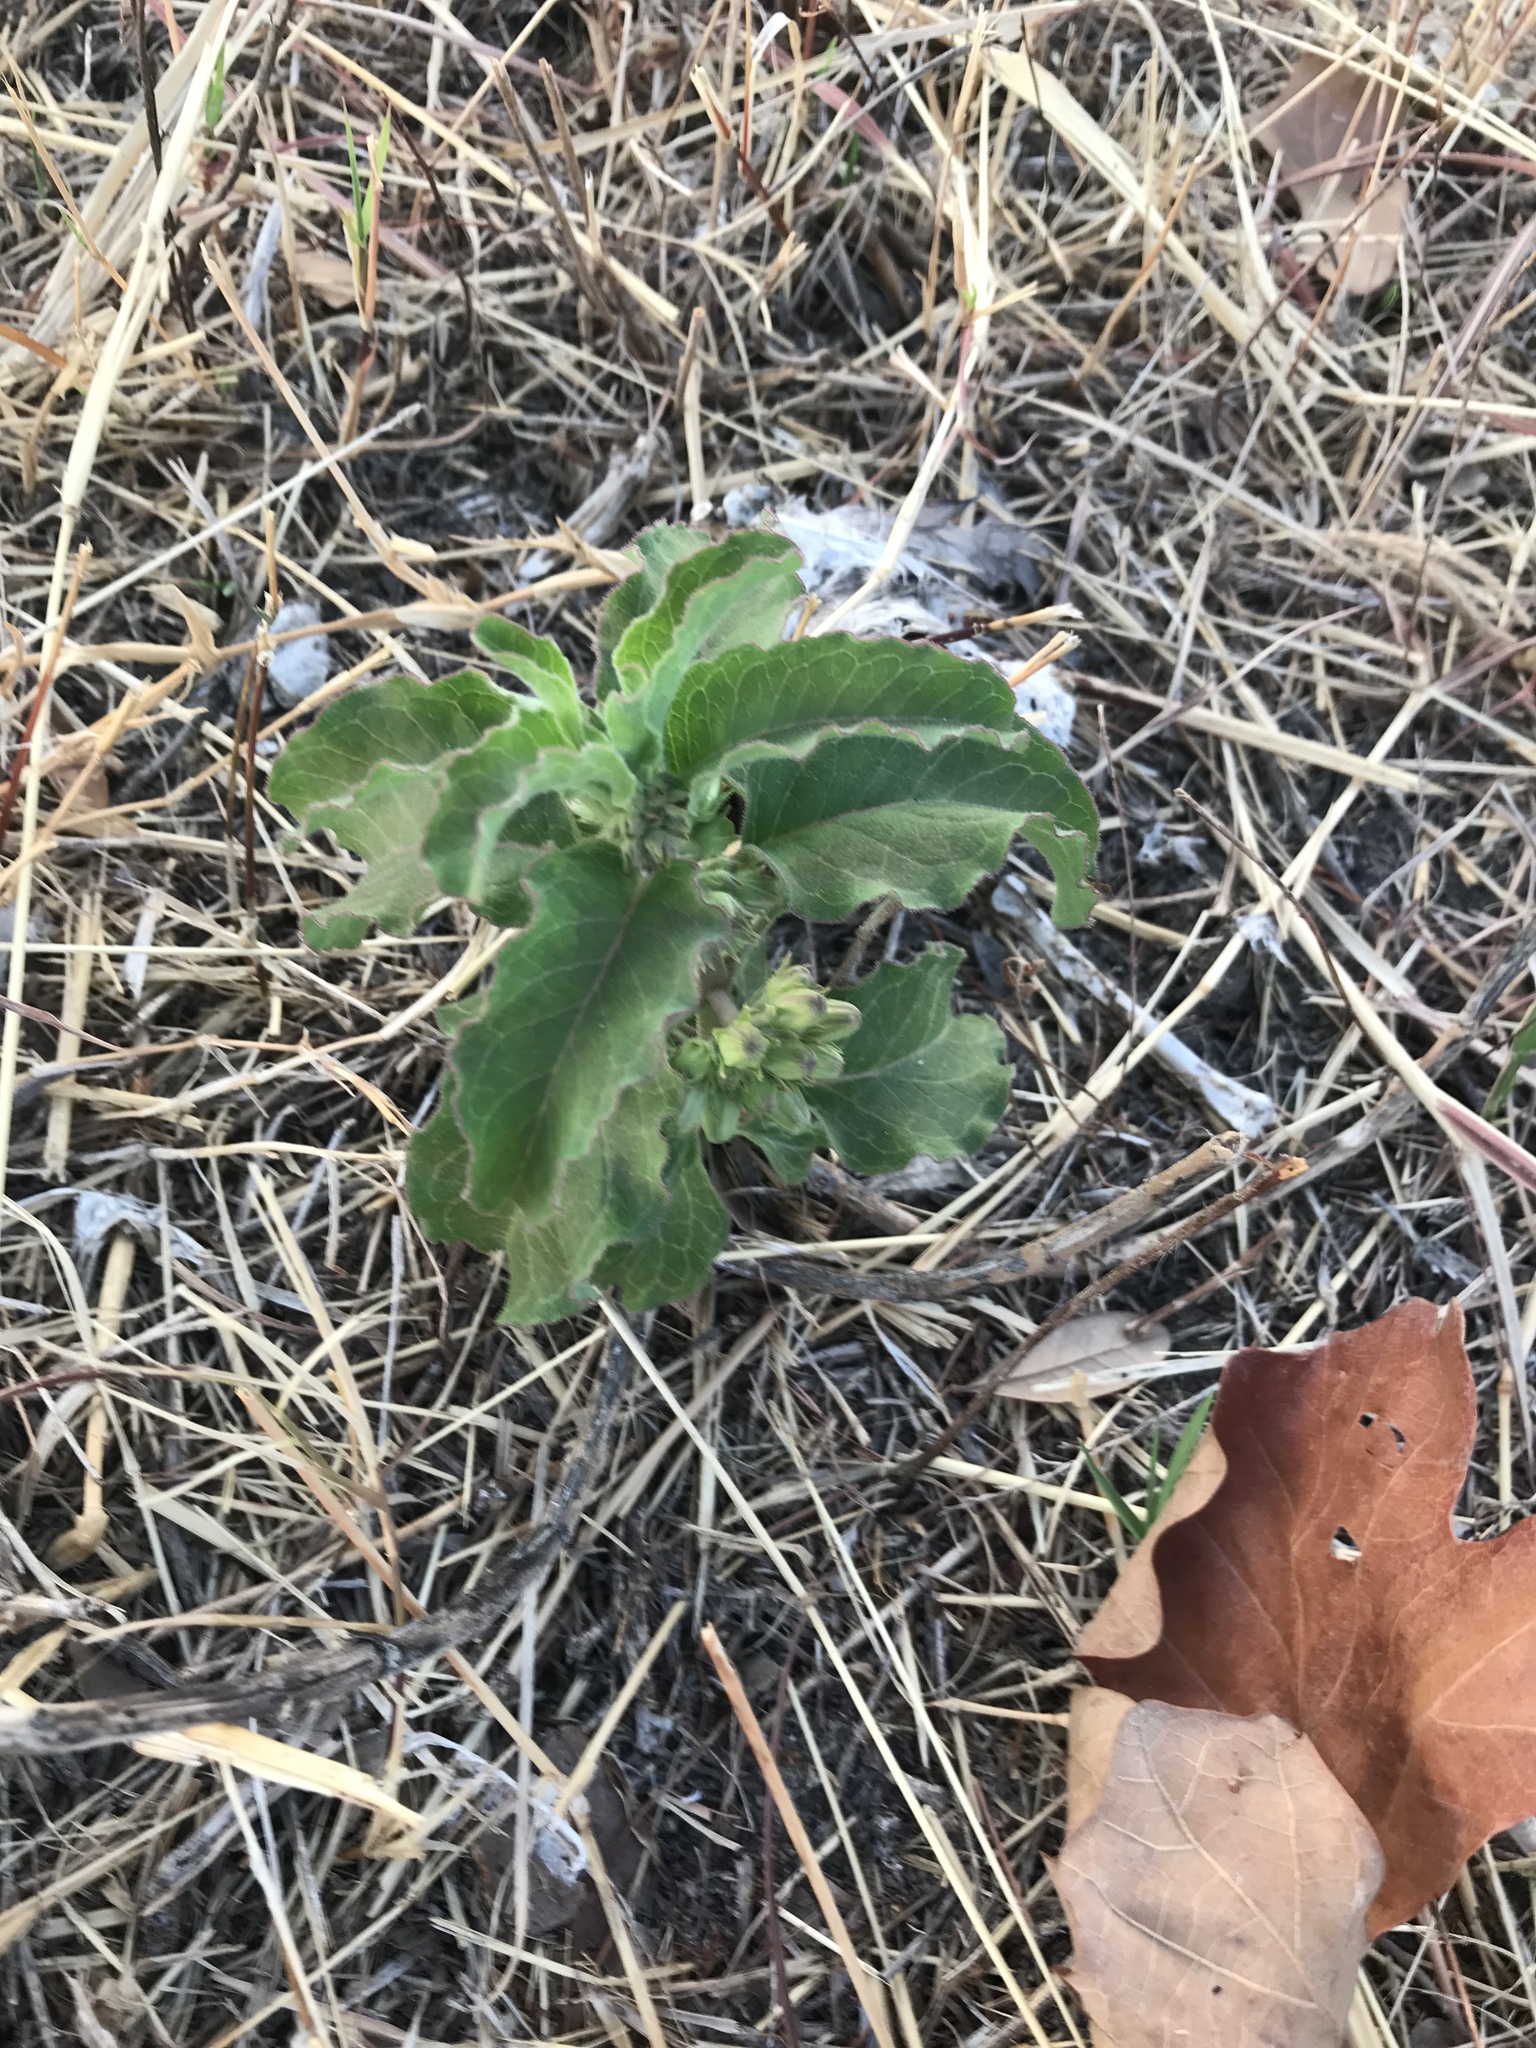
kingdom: Plantae
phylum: Tracheophyta
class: Magnoliopsida
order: Gentianales
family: Apocynaceae
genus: Asclepias
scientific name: Asclepias oenotheroides
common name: Zizotes milkweed
